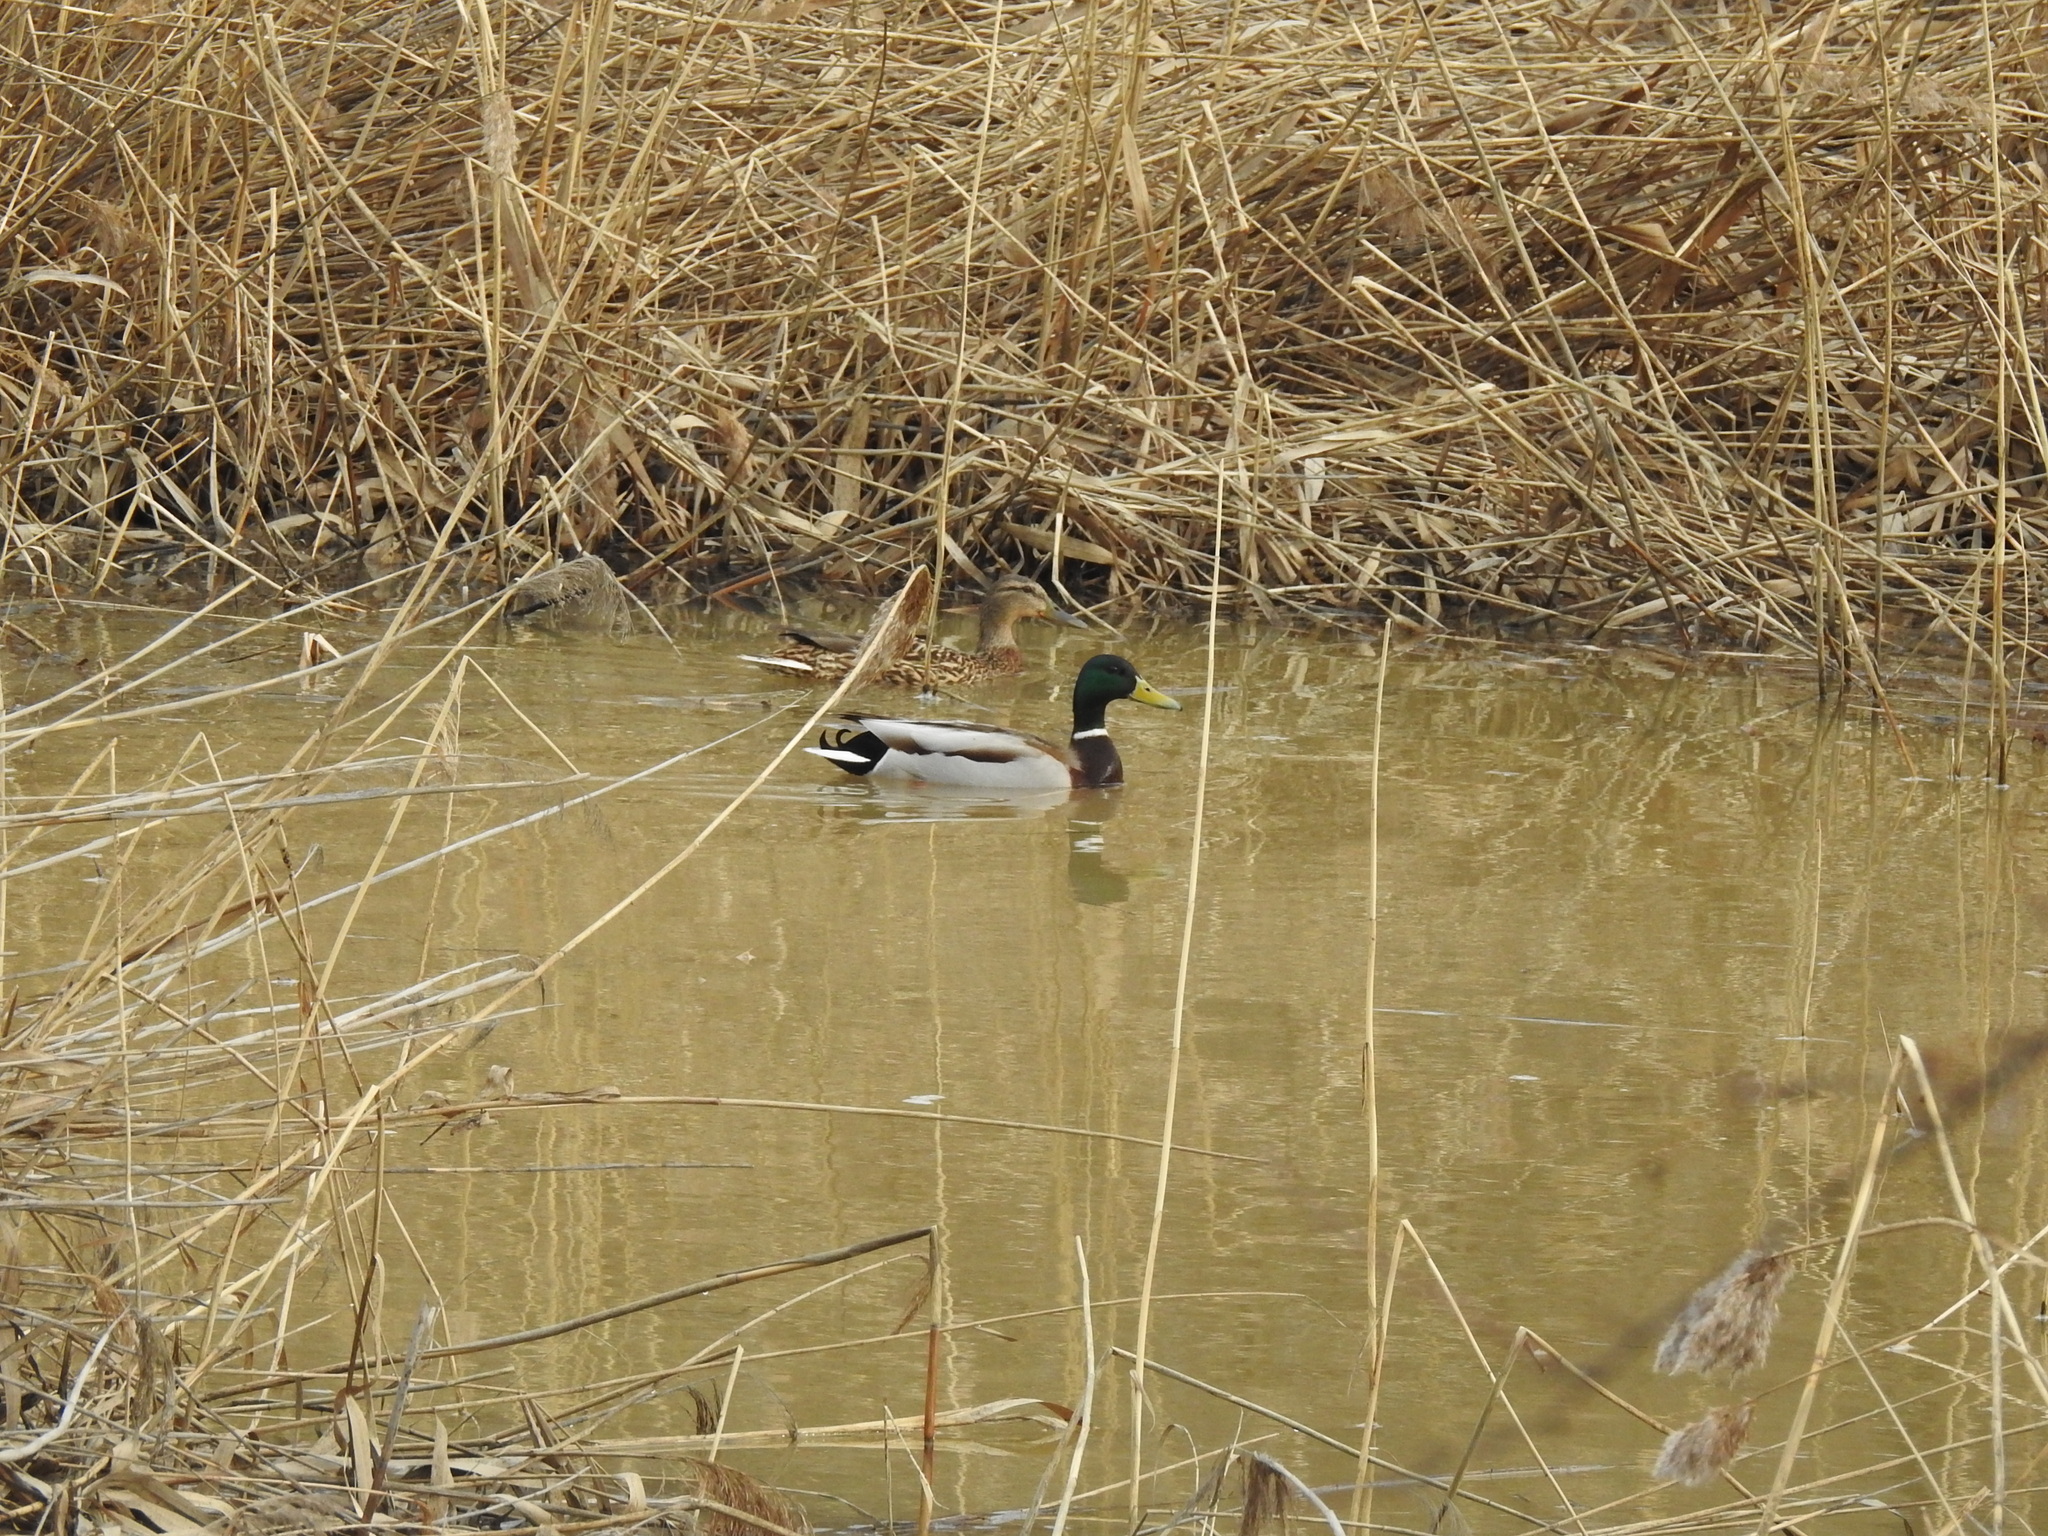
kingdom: Animalia
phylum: Chordata
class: Aves
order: Anseriformes
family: Anatidae
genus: Anas
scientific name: Anas platyrhynchos
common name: Mallard
